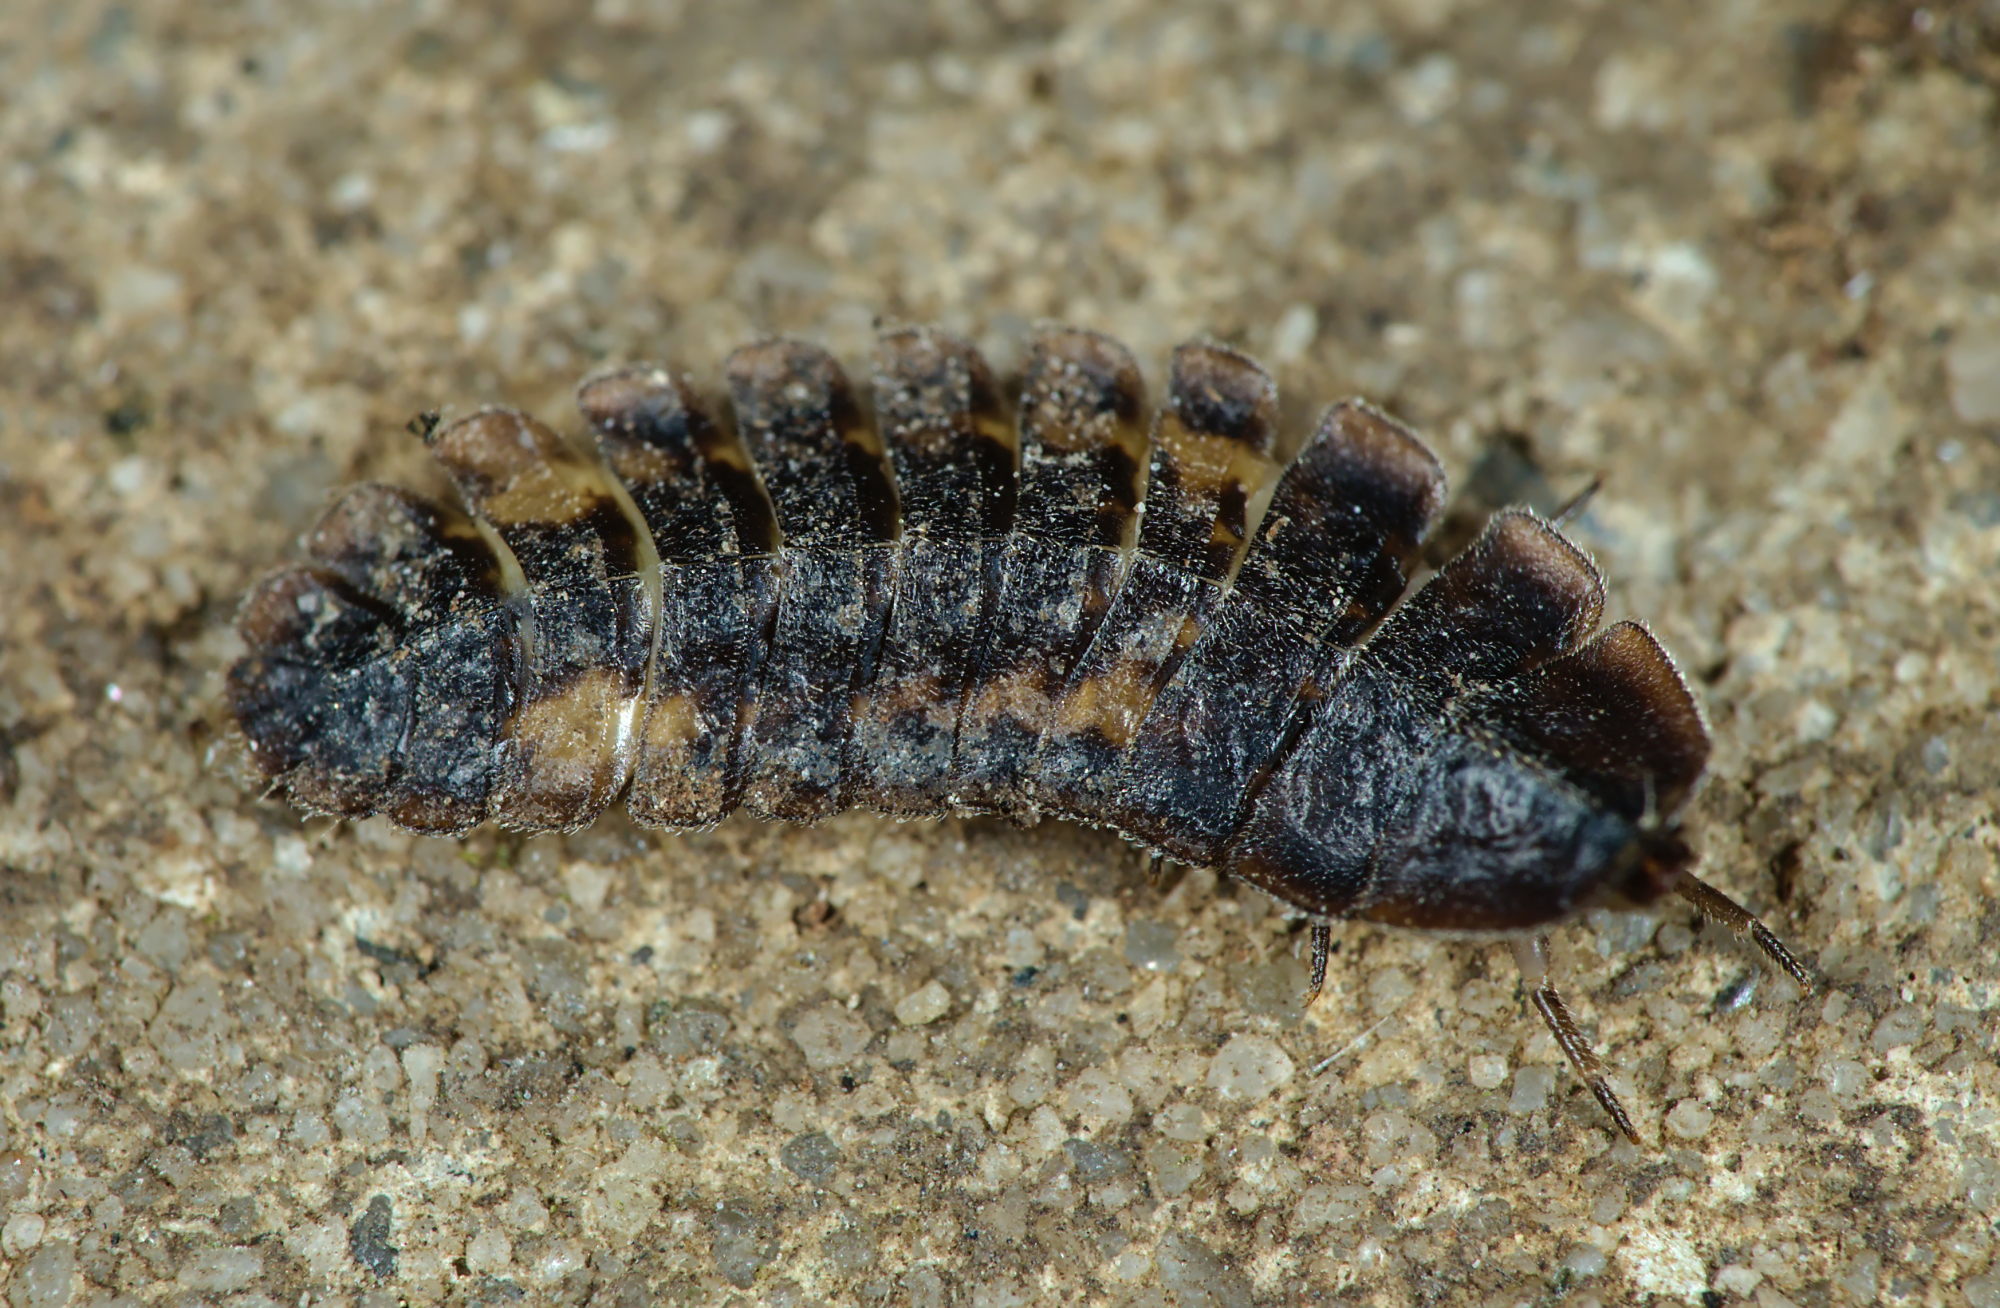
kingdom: Animalia
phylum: Arthropoda
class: Insecta
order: Coleoptera
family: Lampyridae
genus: Lamprohiza
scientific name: Lamprohiza splendidula
